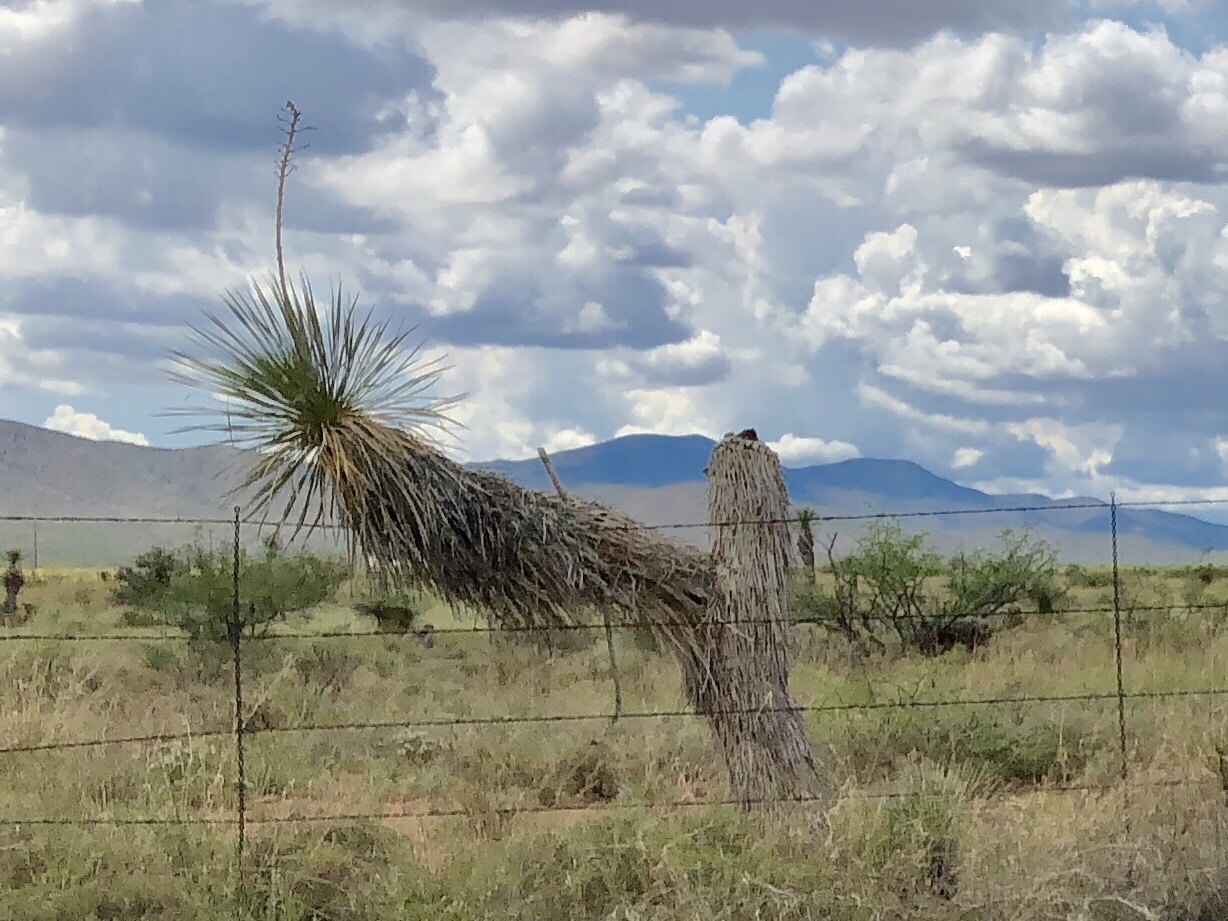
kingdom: Plantae
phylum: Tracheophyta
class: Liliopsida
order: Asparagales
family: Asparagaceae
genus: Yucca
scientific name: Yucca elata
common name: Palmella
